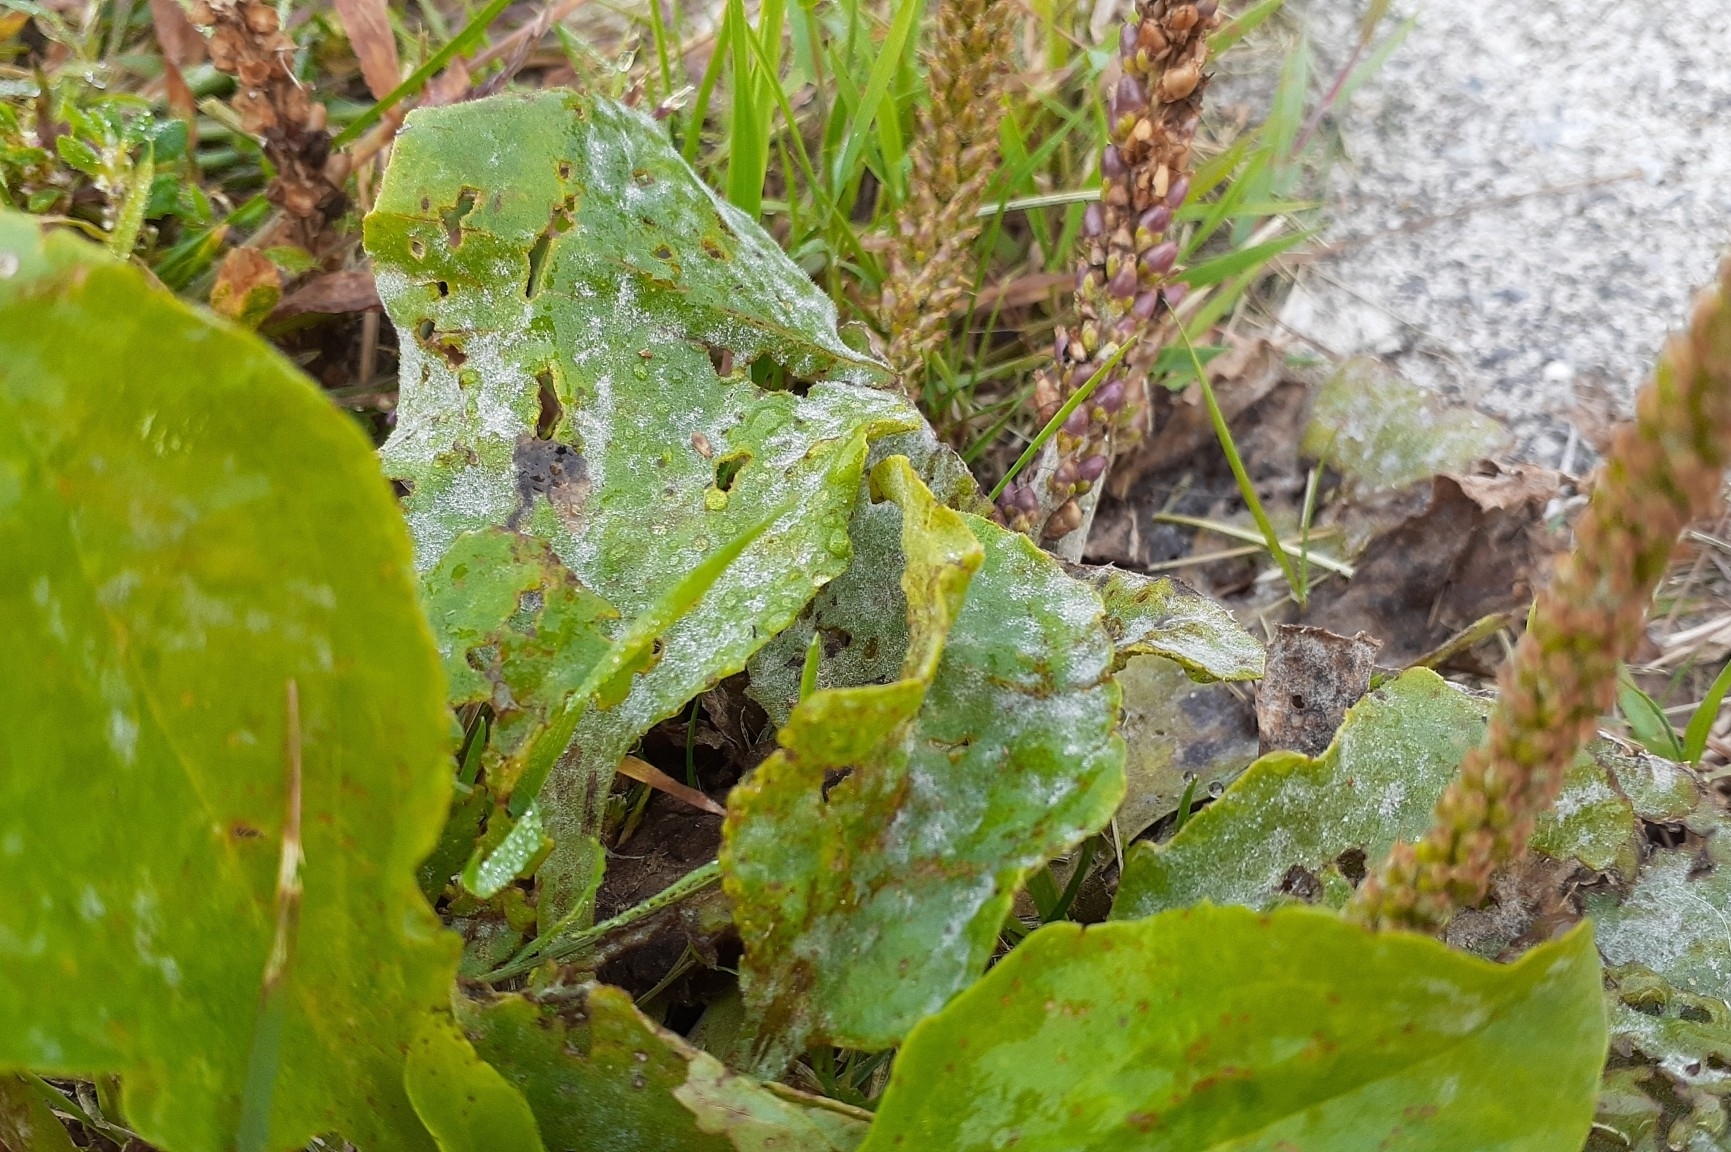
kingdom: Fungi
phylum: Ascomycota
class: Leotiomycetes
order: Helotiales
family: Erysiphaceae
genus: Golovinomyces
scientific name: Golovinomyces sordidus
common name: Plantain mildew
